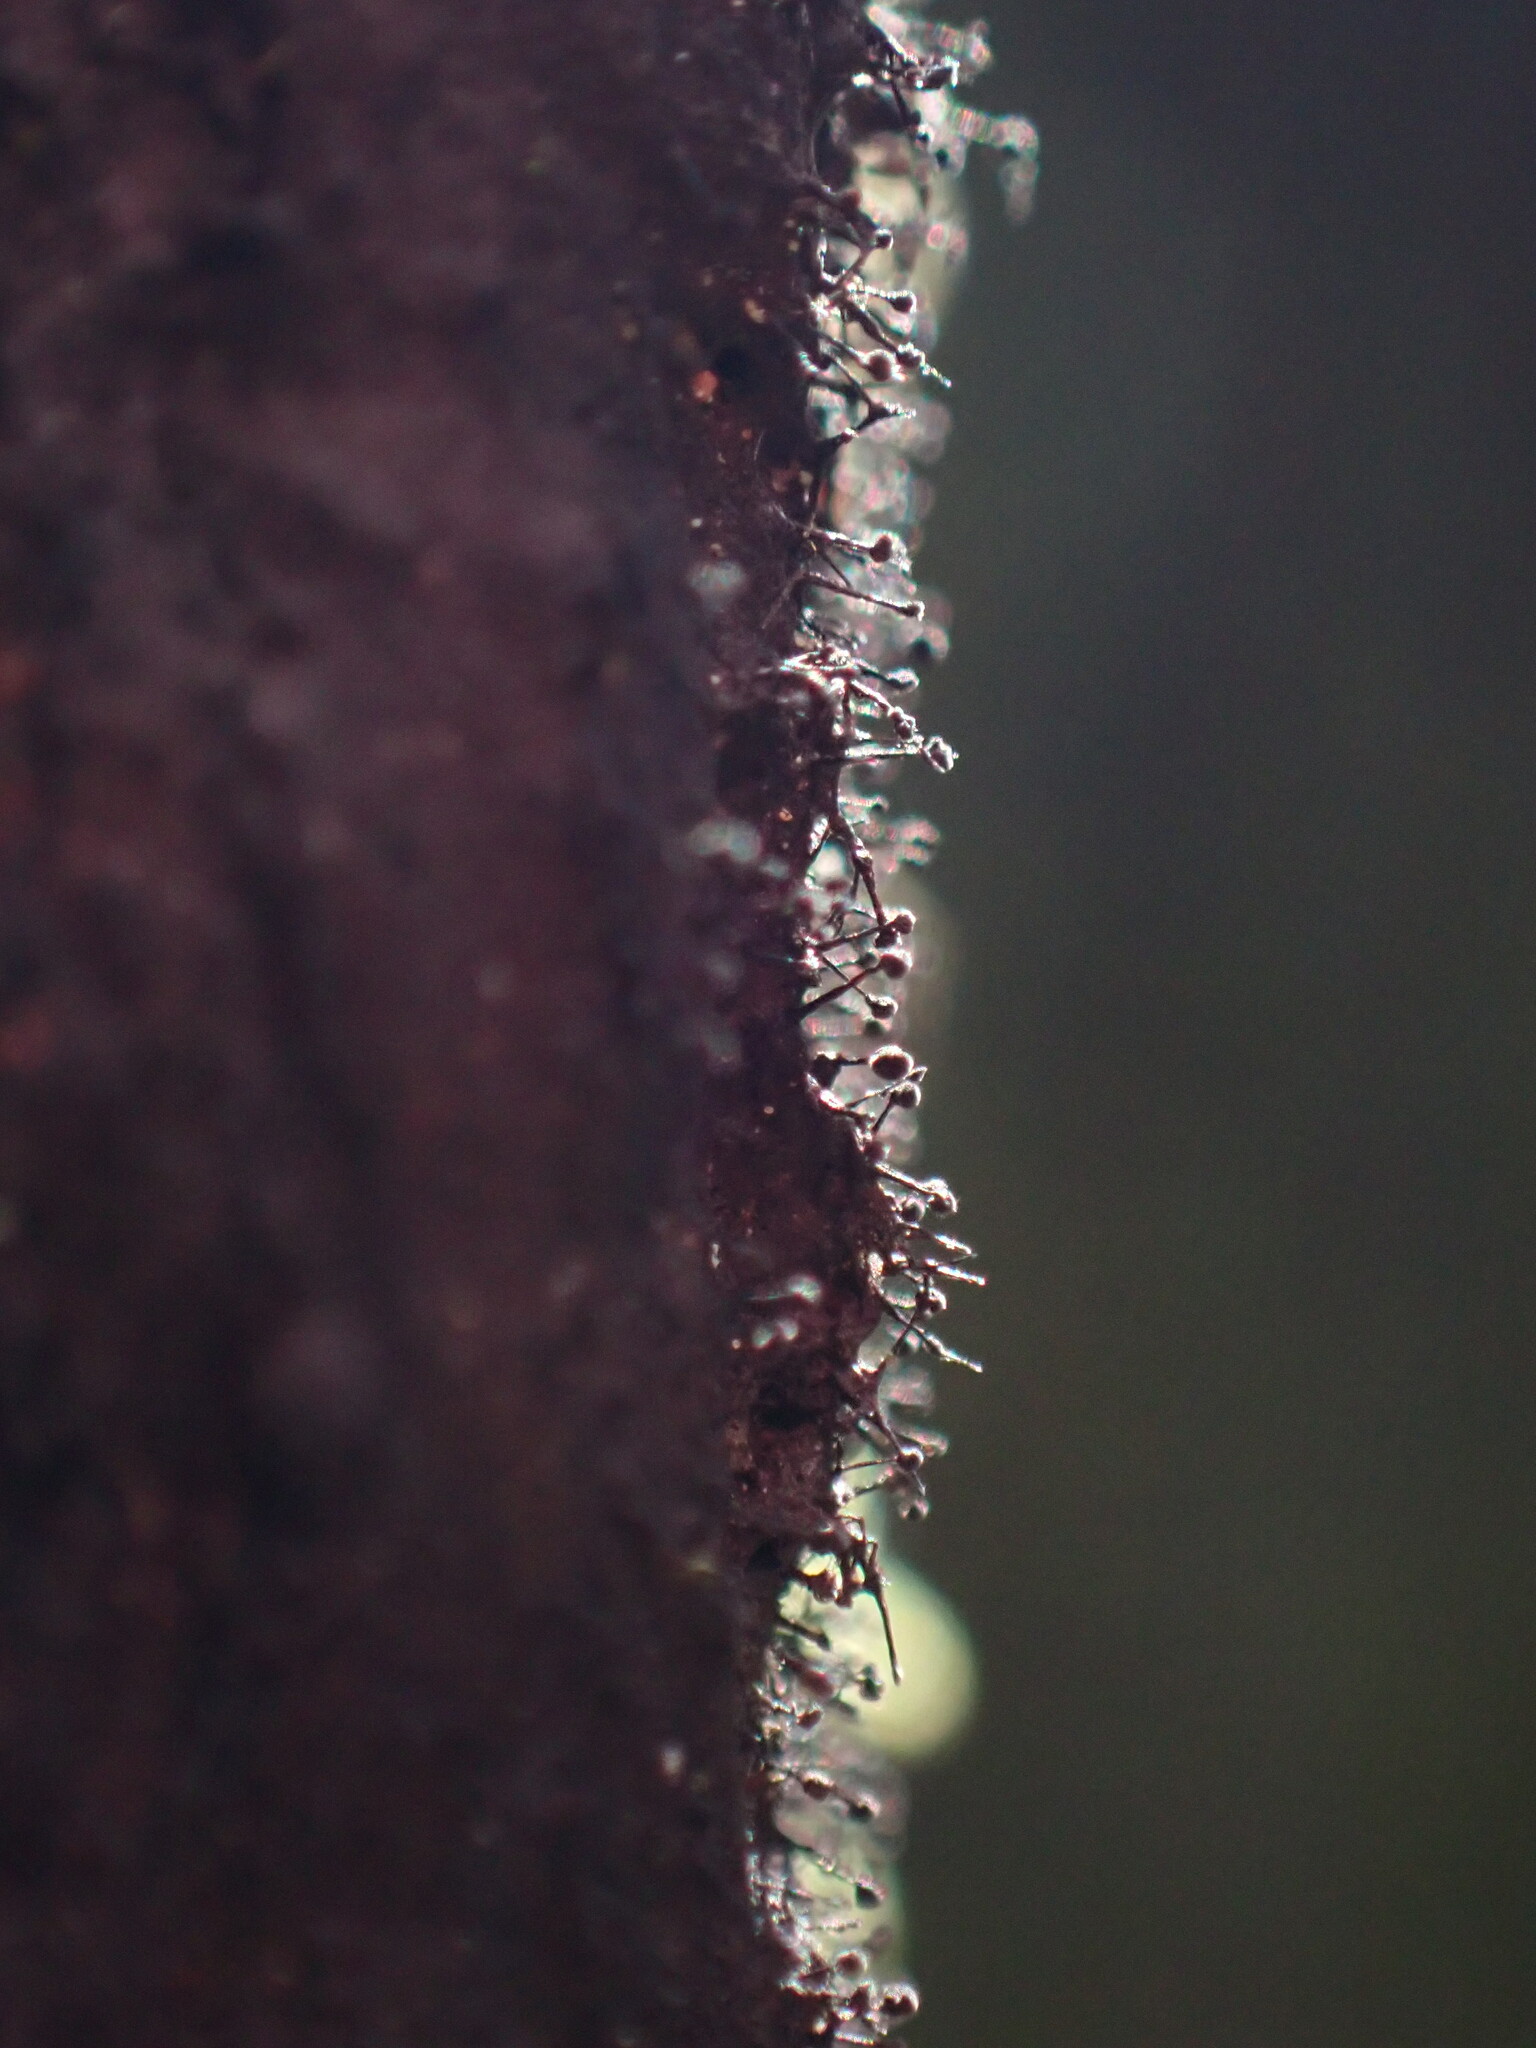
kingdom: Fungi
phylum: Ascomycota
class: Leotiomycetes
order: Helotiales
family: Amorphothecaceae
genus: Sorocybe
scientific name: Sorocybe resinae
